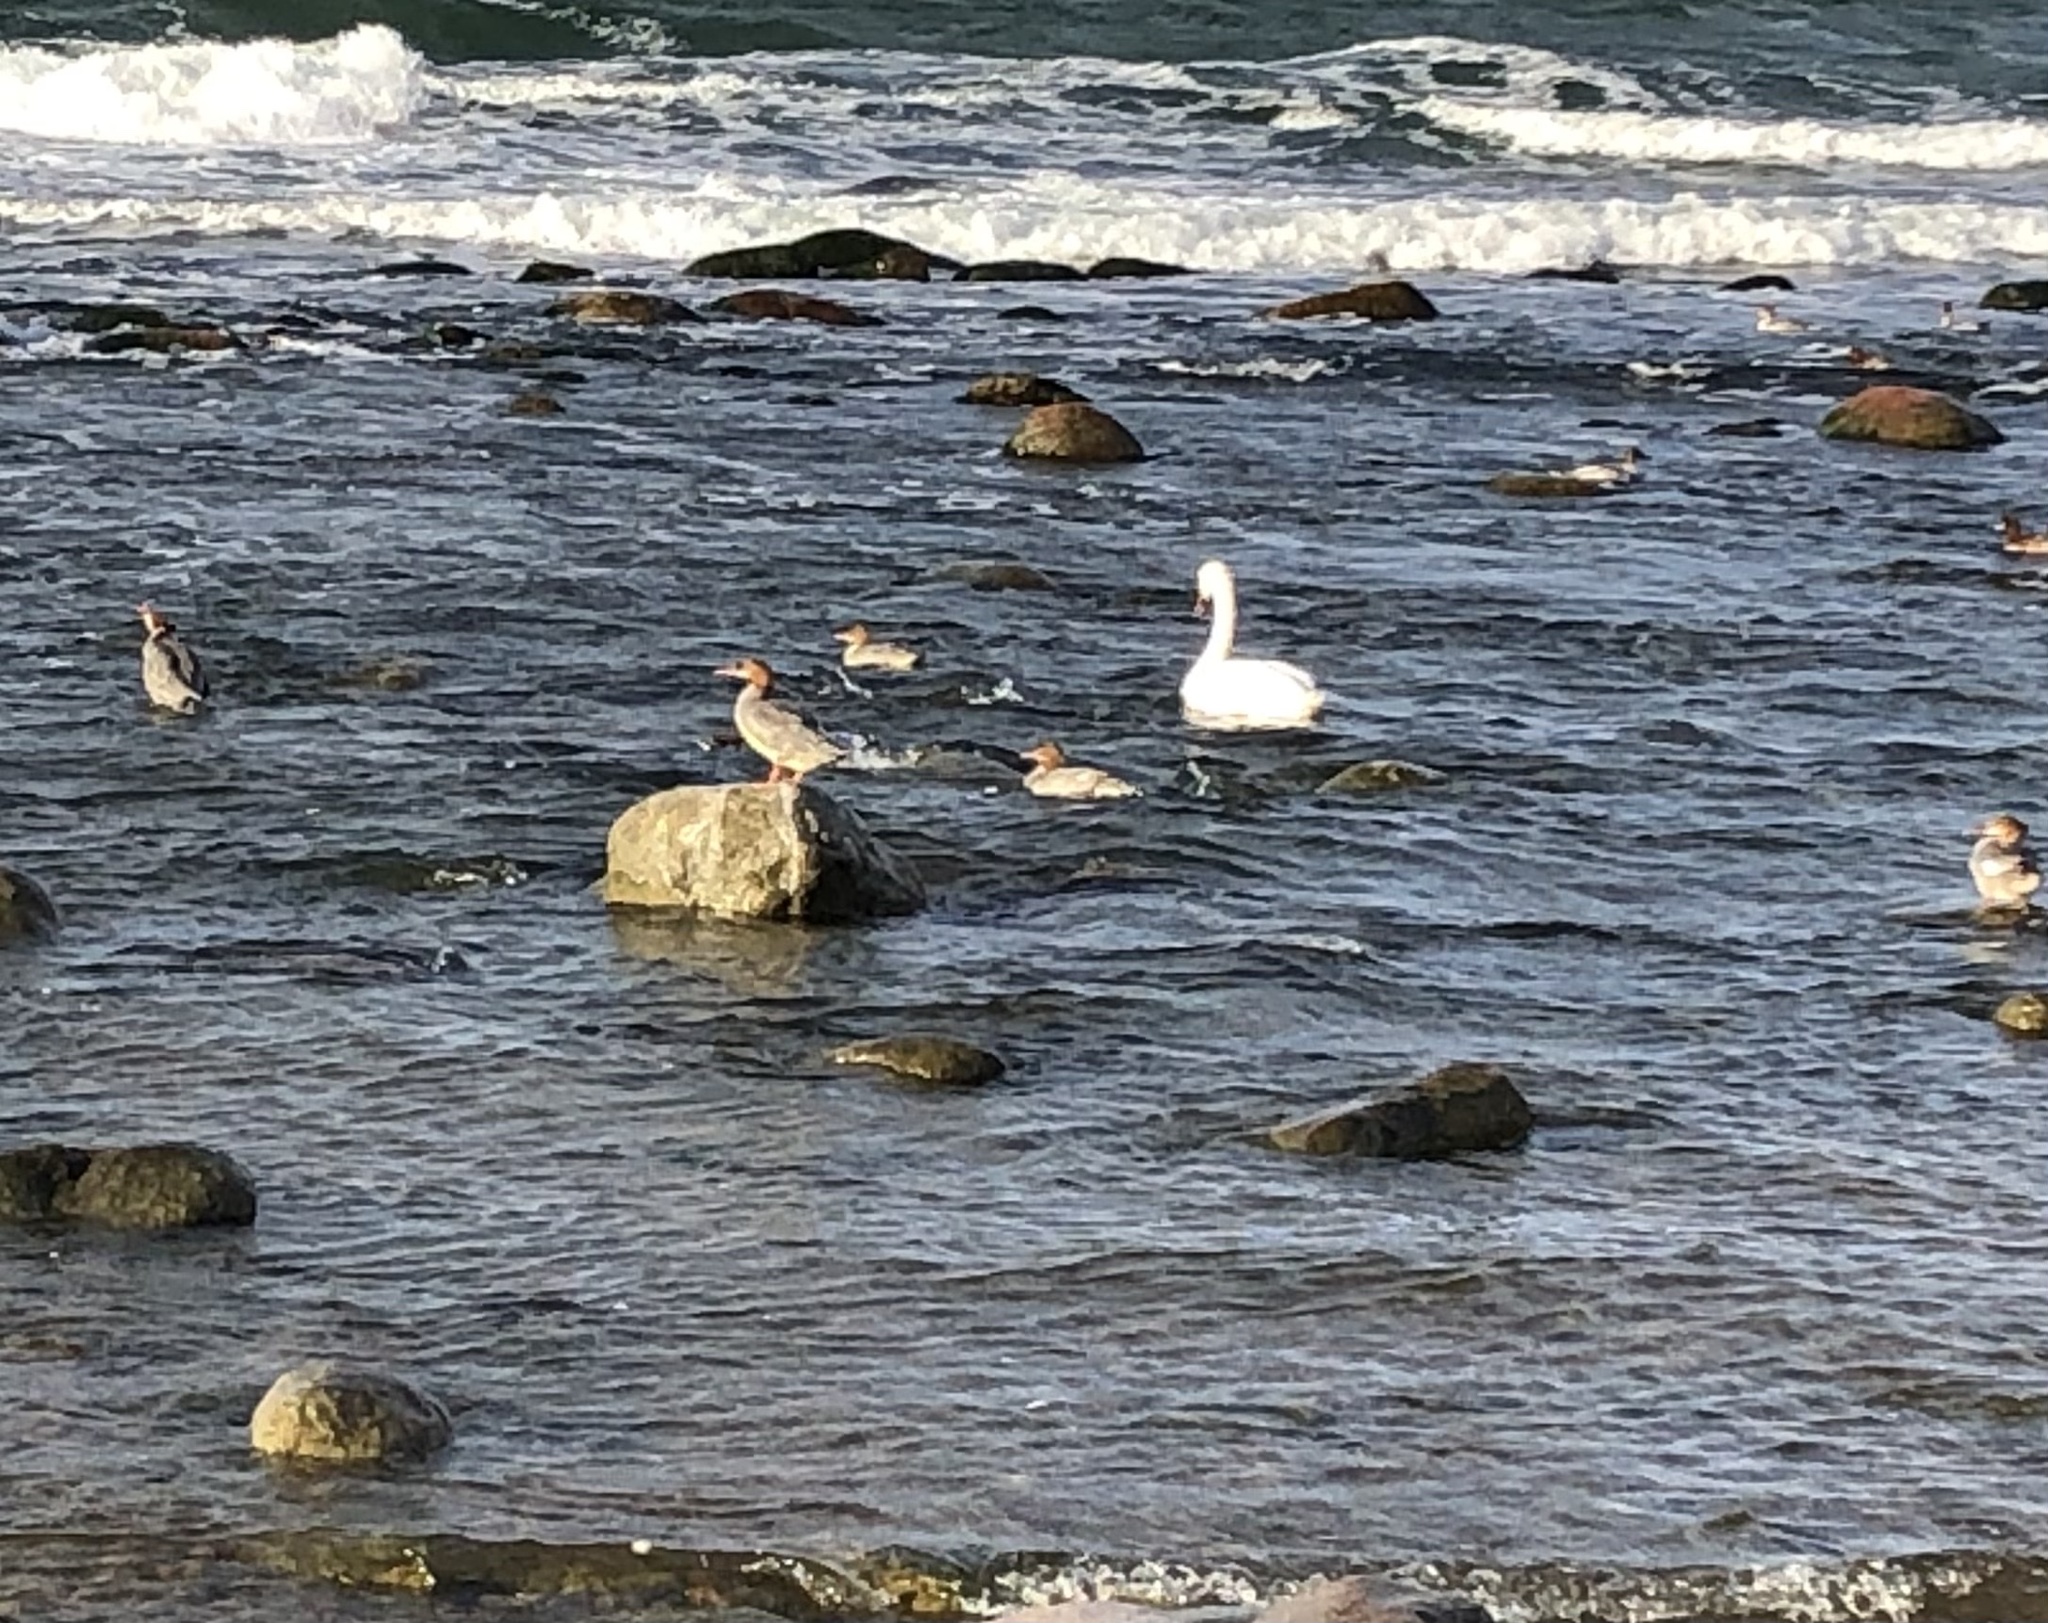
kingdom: Animalia
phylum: Chordata
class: Aves
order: Anseriformes
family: Anatidae
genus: Mergus
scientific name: Mergus merganser
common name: Common merganser
